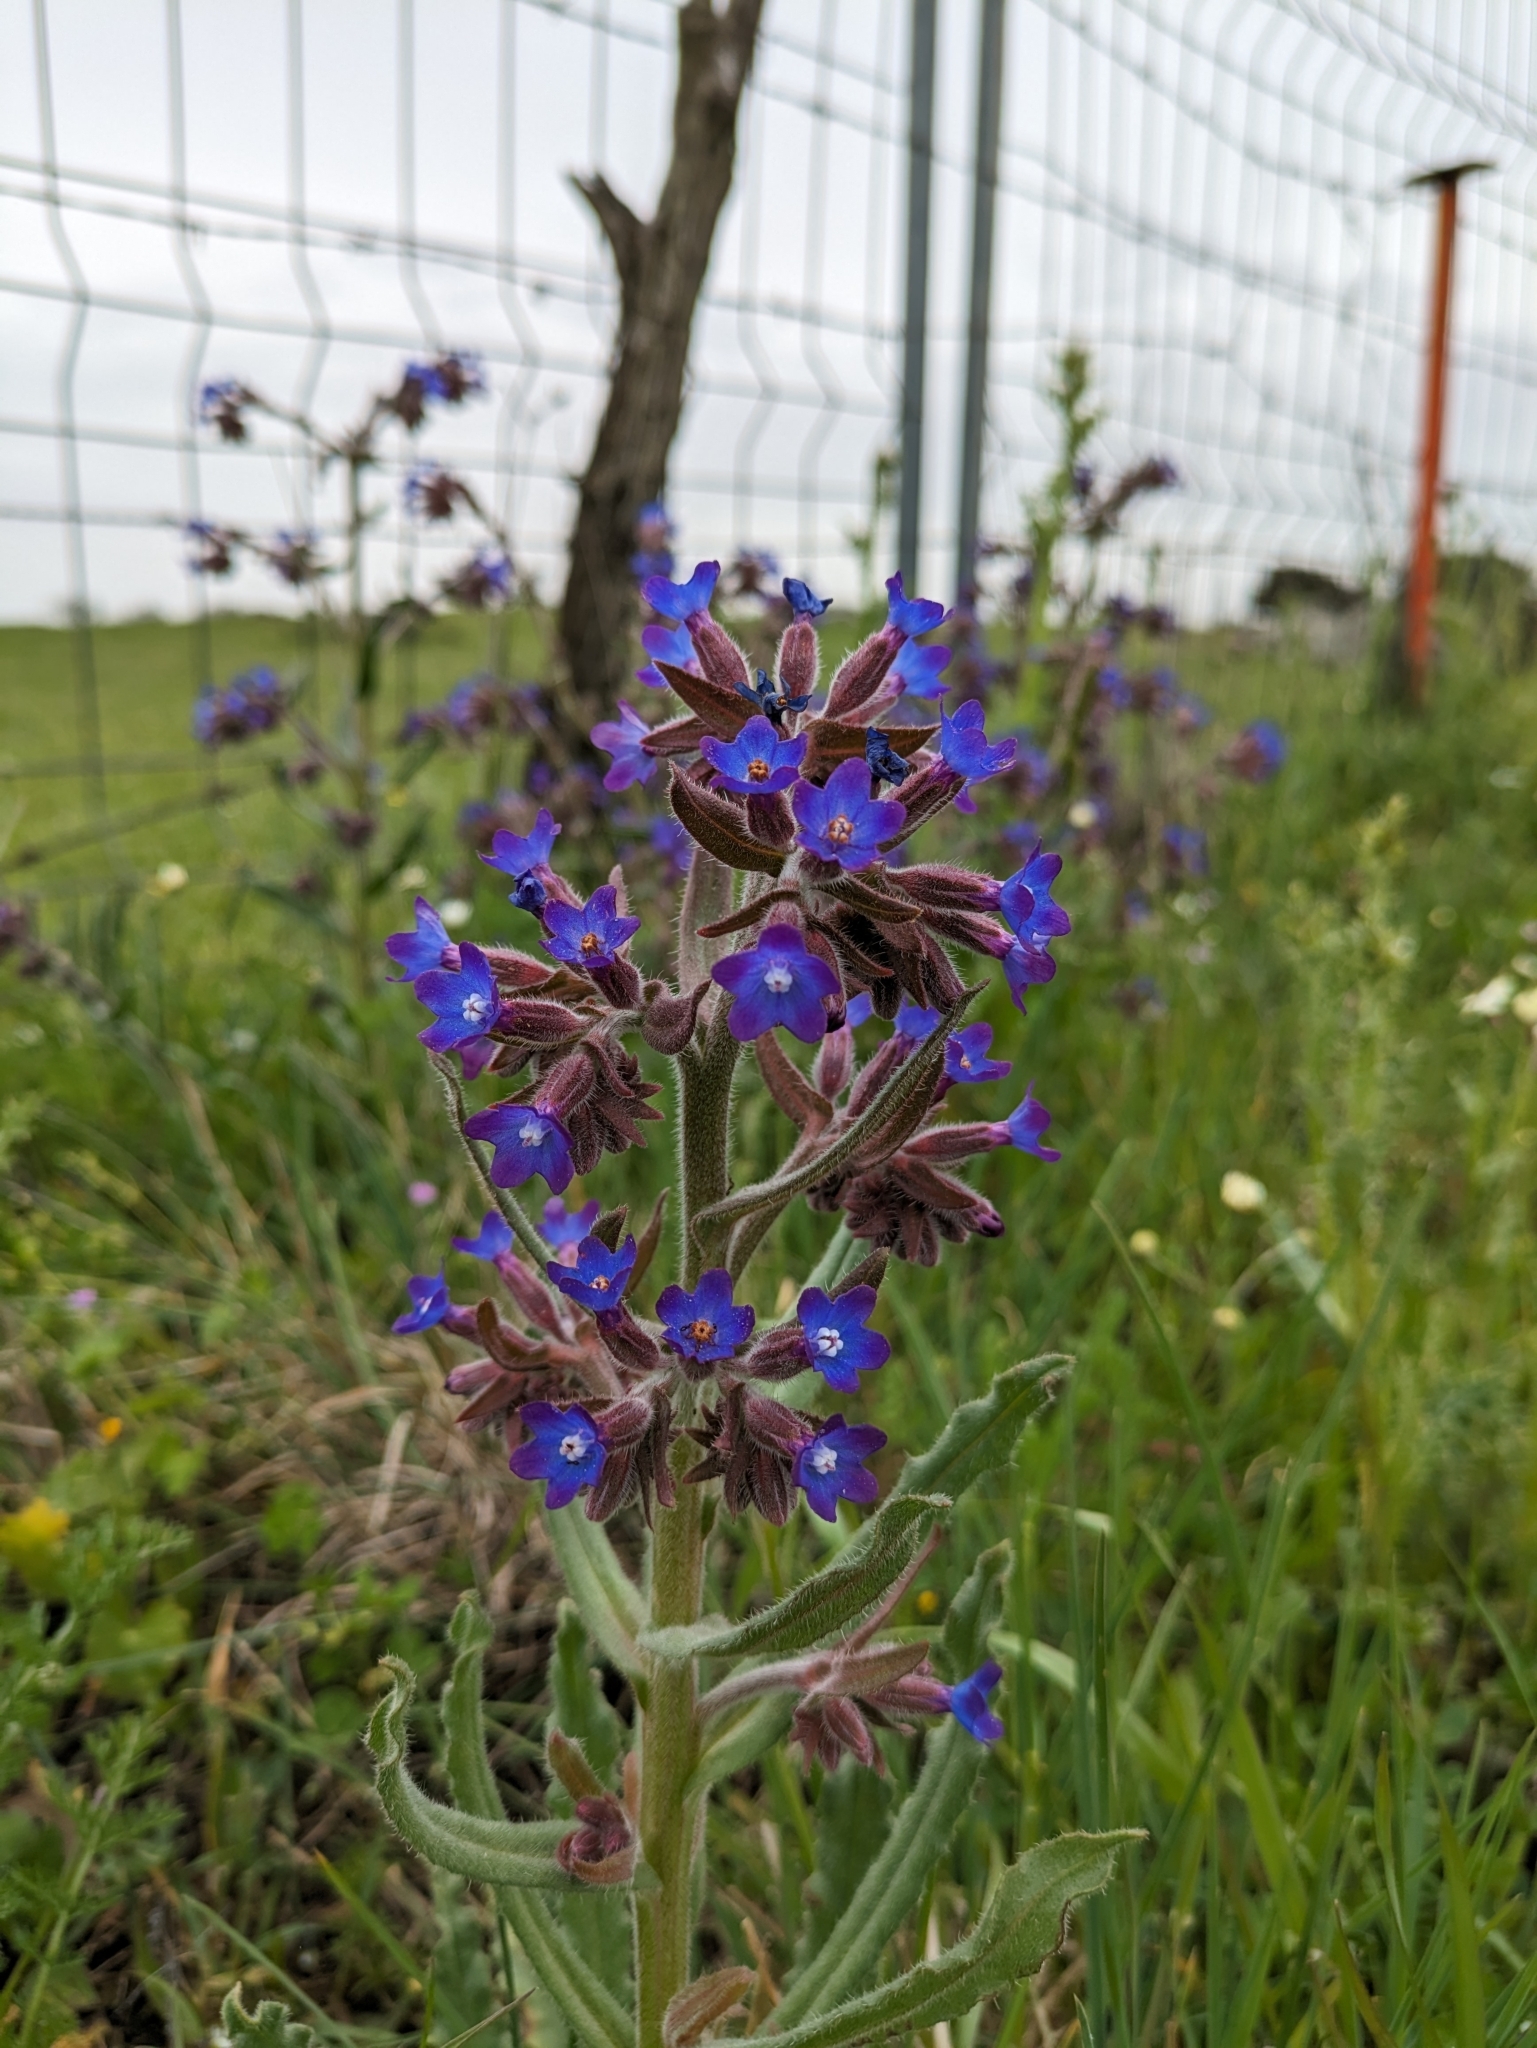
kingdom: Plantae
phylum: Tracheophyta
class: Magnoliopsida
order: Boraginales
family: Boraginaceae
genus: Anchusa
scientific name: Anchusa undulata
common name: Undulate alkanet
